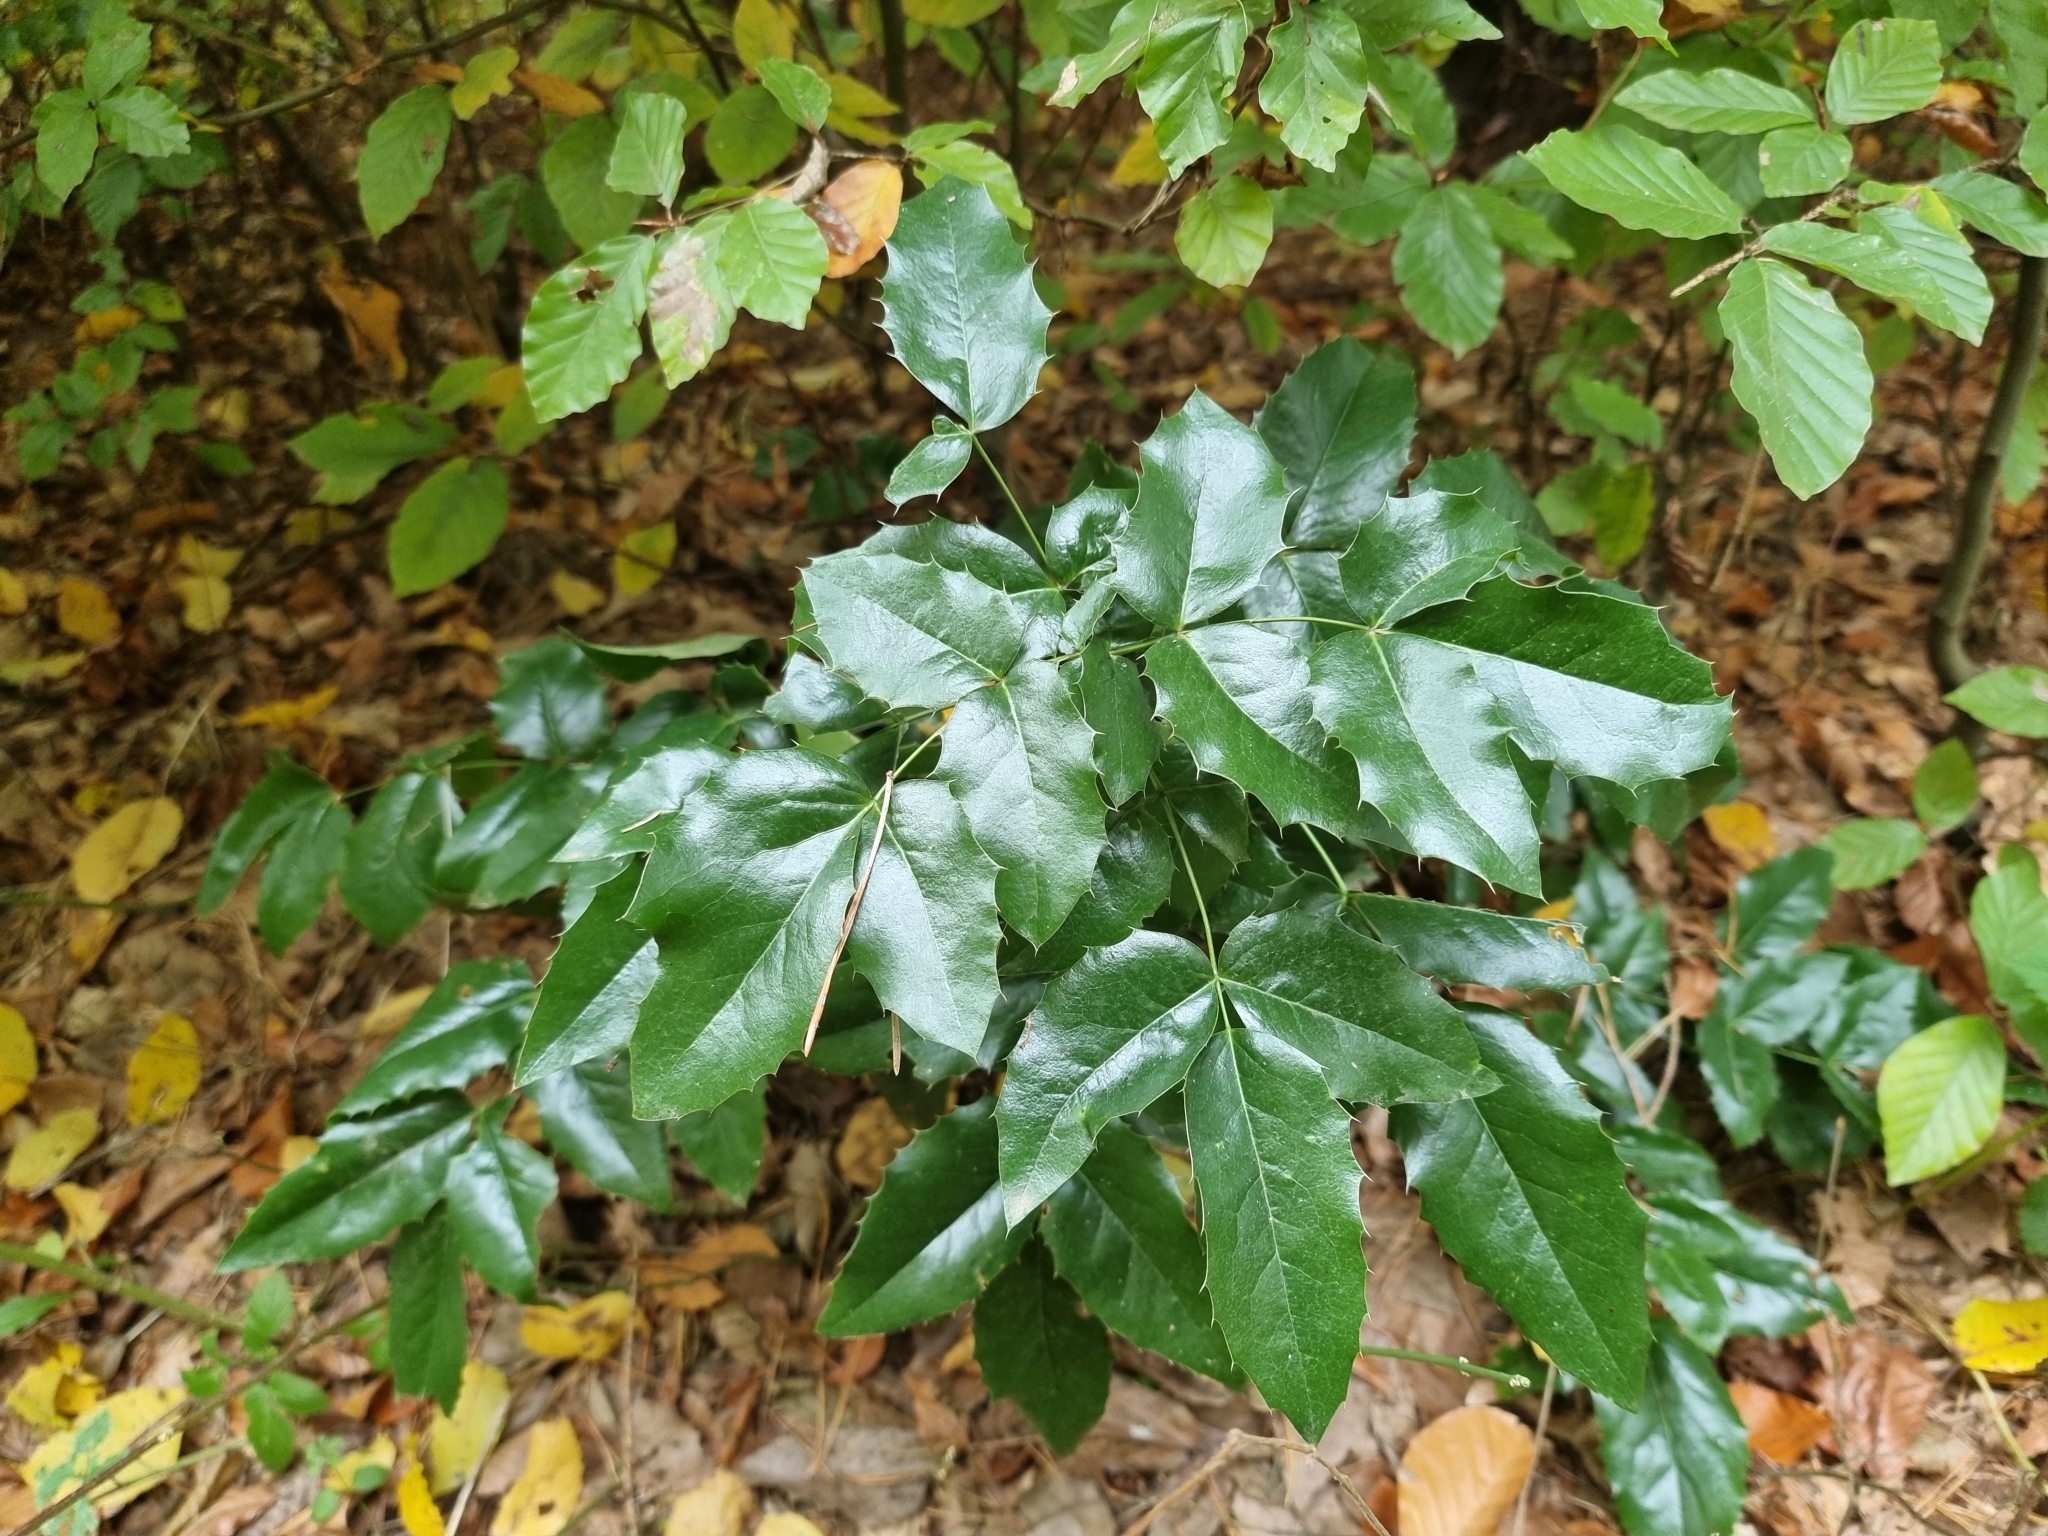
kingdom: Plantae
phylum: Tracheophyta
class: Magnoliopsida
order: Ranunculales
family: Berberidaceae
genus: Mahonia
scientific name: Mahonia aquifolium
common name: Oregon-grape
